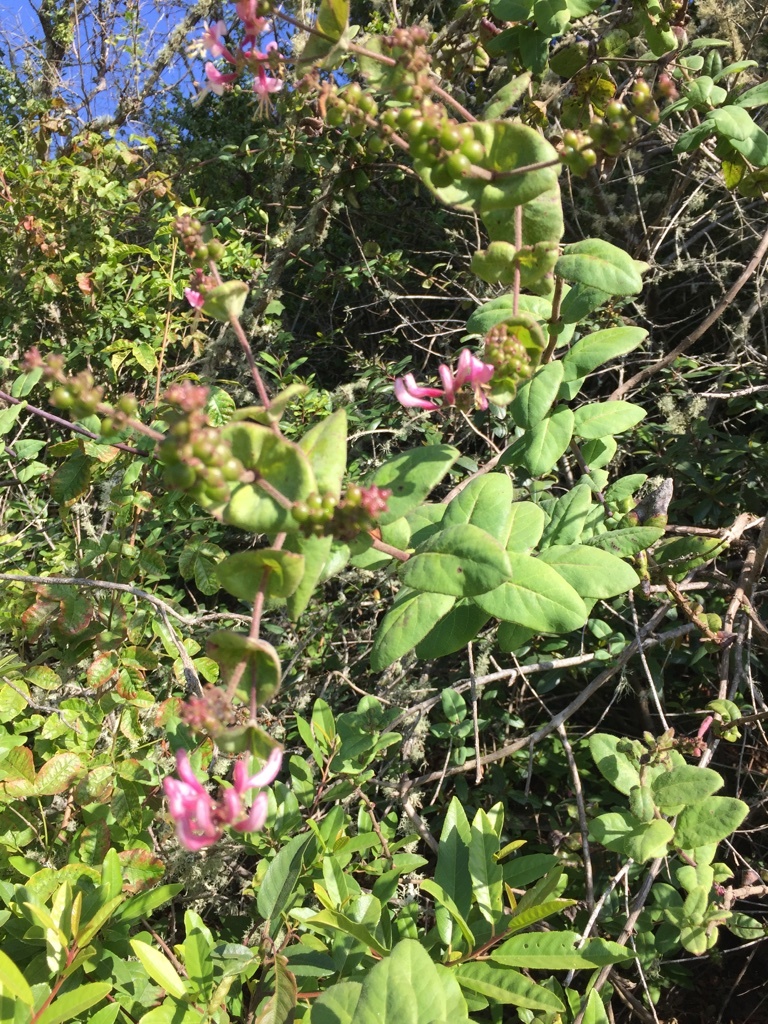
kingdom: Plantae
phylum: Tracheophyta
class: Magnoliopsida
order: Dipsacales
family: Caprifoliaceae
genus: Lonicera
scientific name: Lonicera hispidula
